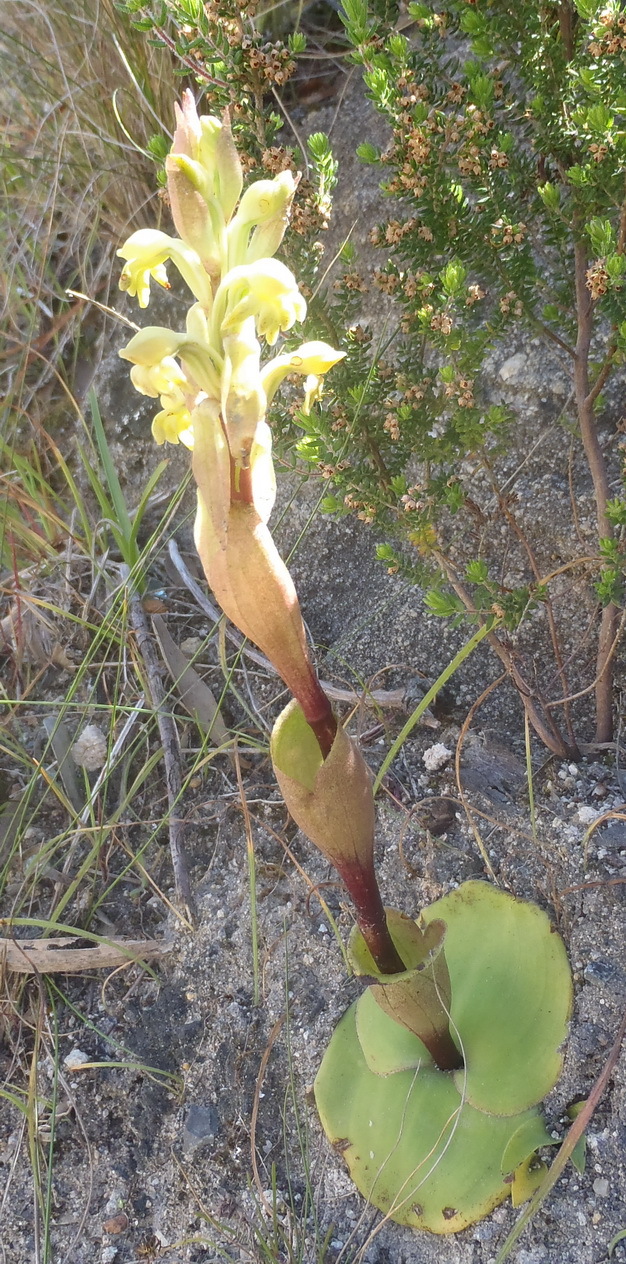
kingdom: Plantae
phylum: Tracheophyta
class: Liliopsida
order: Asparagales
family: Orchidaceae
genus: Satyrium
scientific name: Satyrium bicorne
